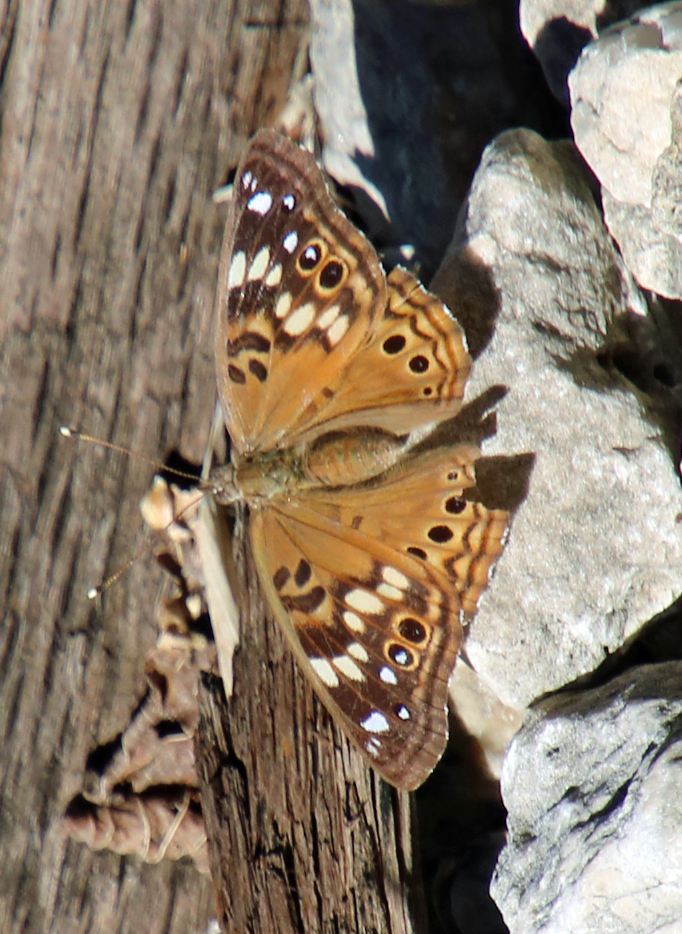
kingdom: Animalia
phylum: Arthropoda
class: Insecta
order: Lepidoptera
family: Nymphalidae
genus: Asterocampa
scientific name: Asterocampa celtis
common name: Hackberry emperor
